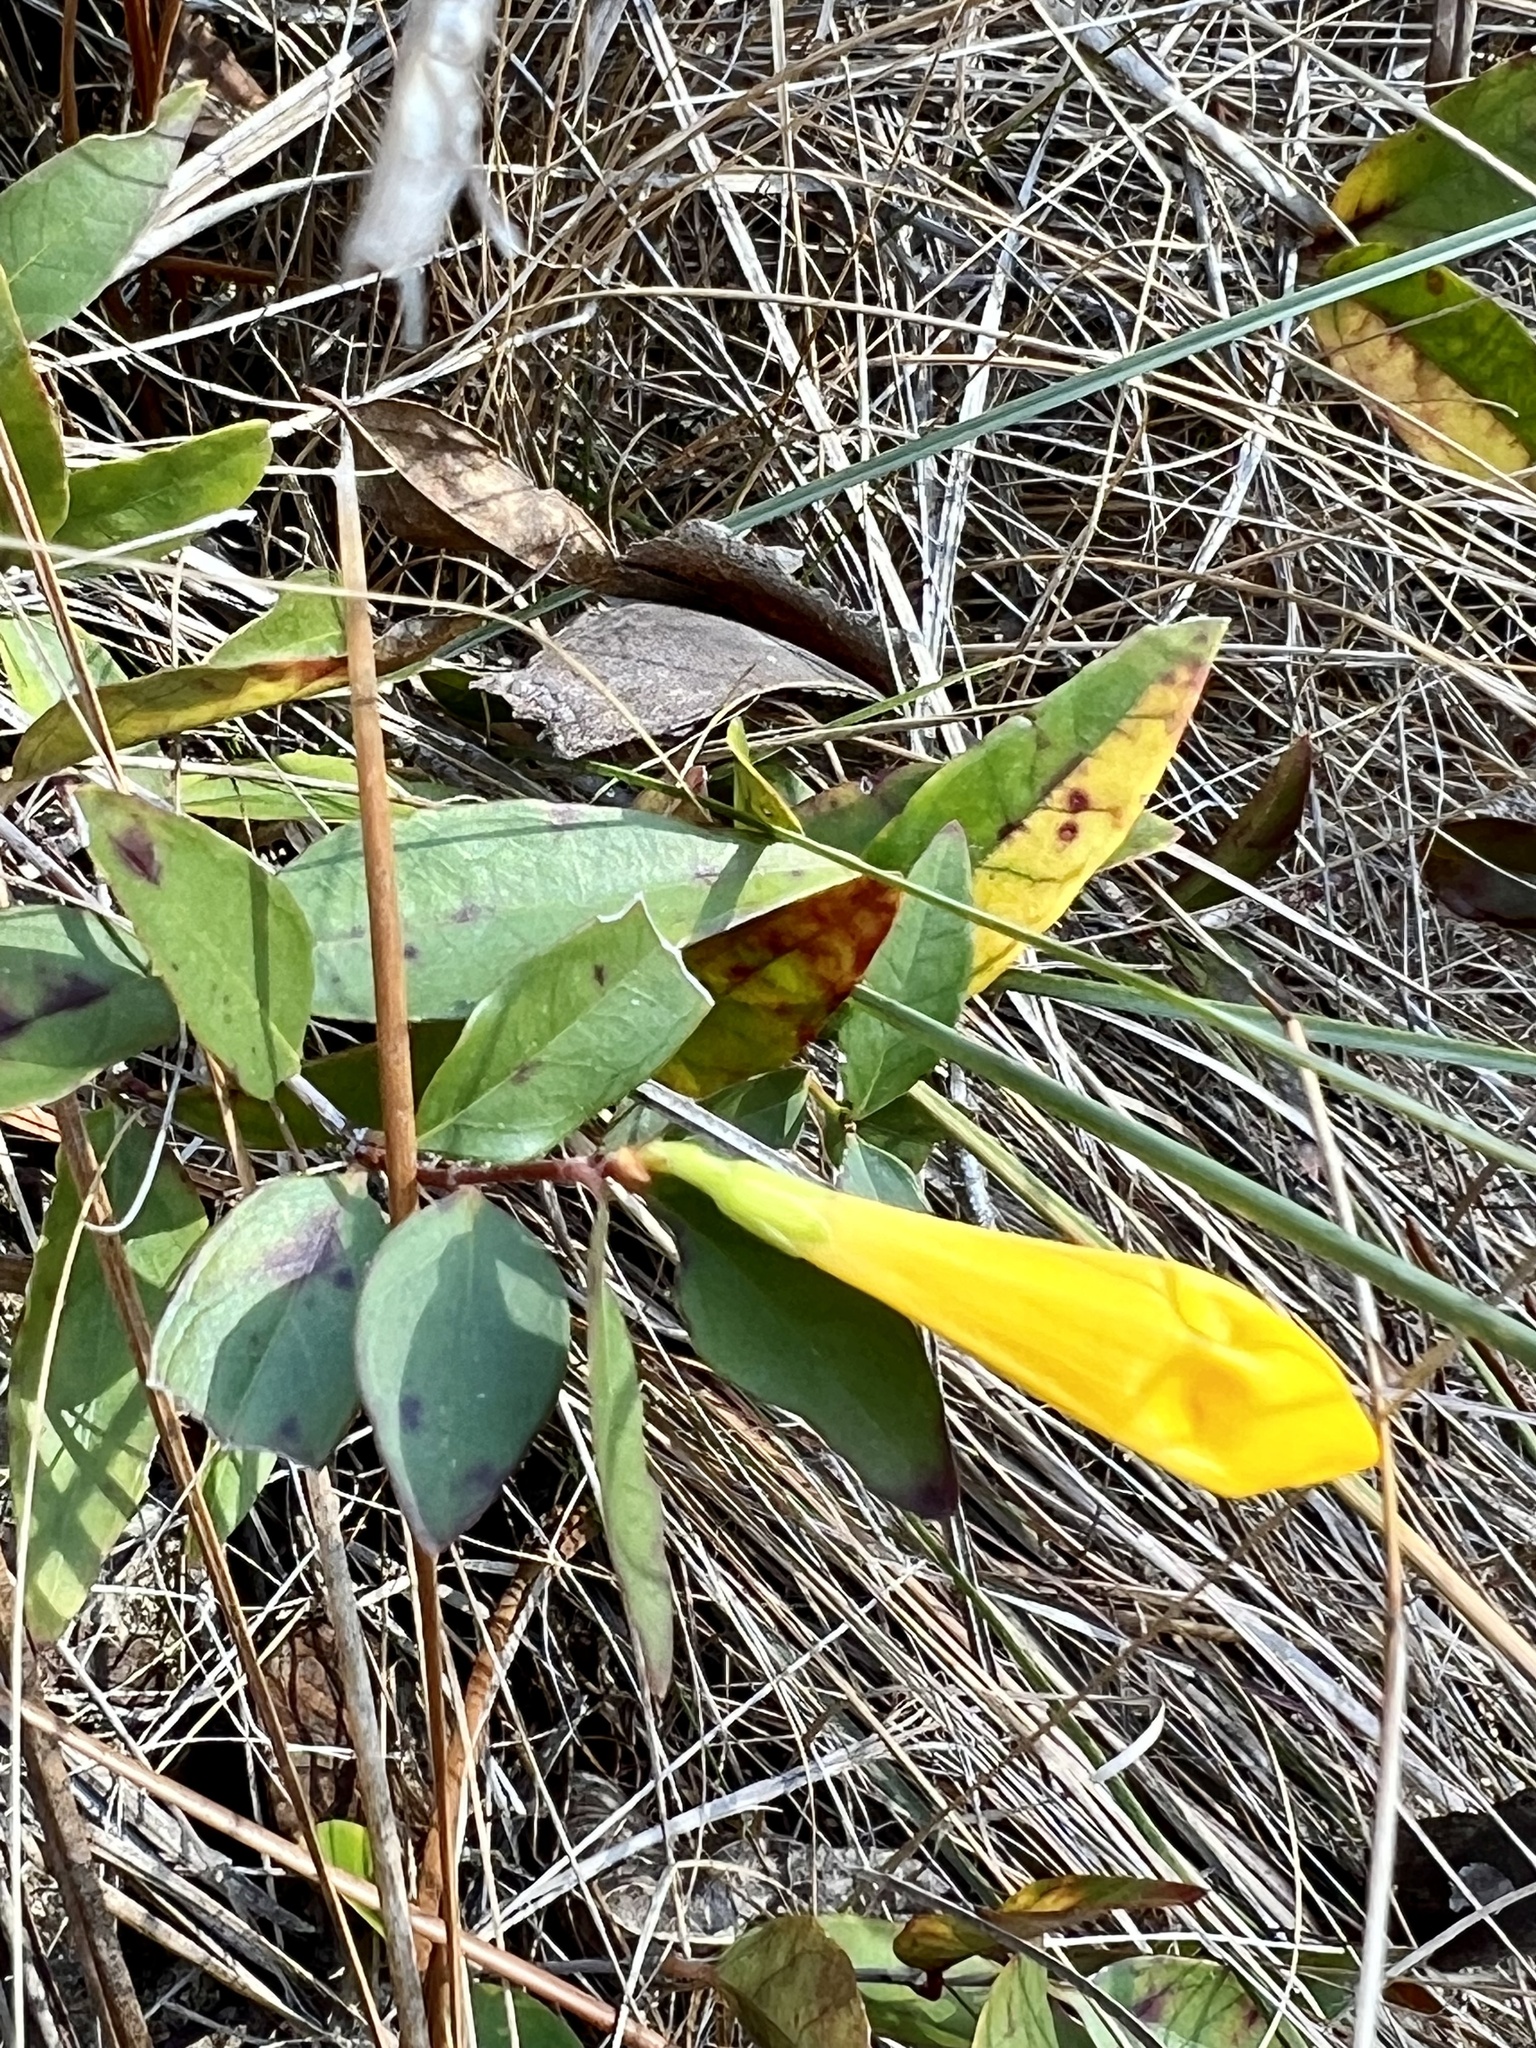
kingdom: Plantae
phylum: Tracheophyta
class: Magnoliopsida
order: Gentianales
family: Gelsemiaceae
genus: Gelsemium
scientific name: Gelsemium sempervirens
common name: Carolina-jasmine
